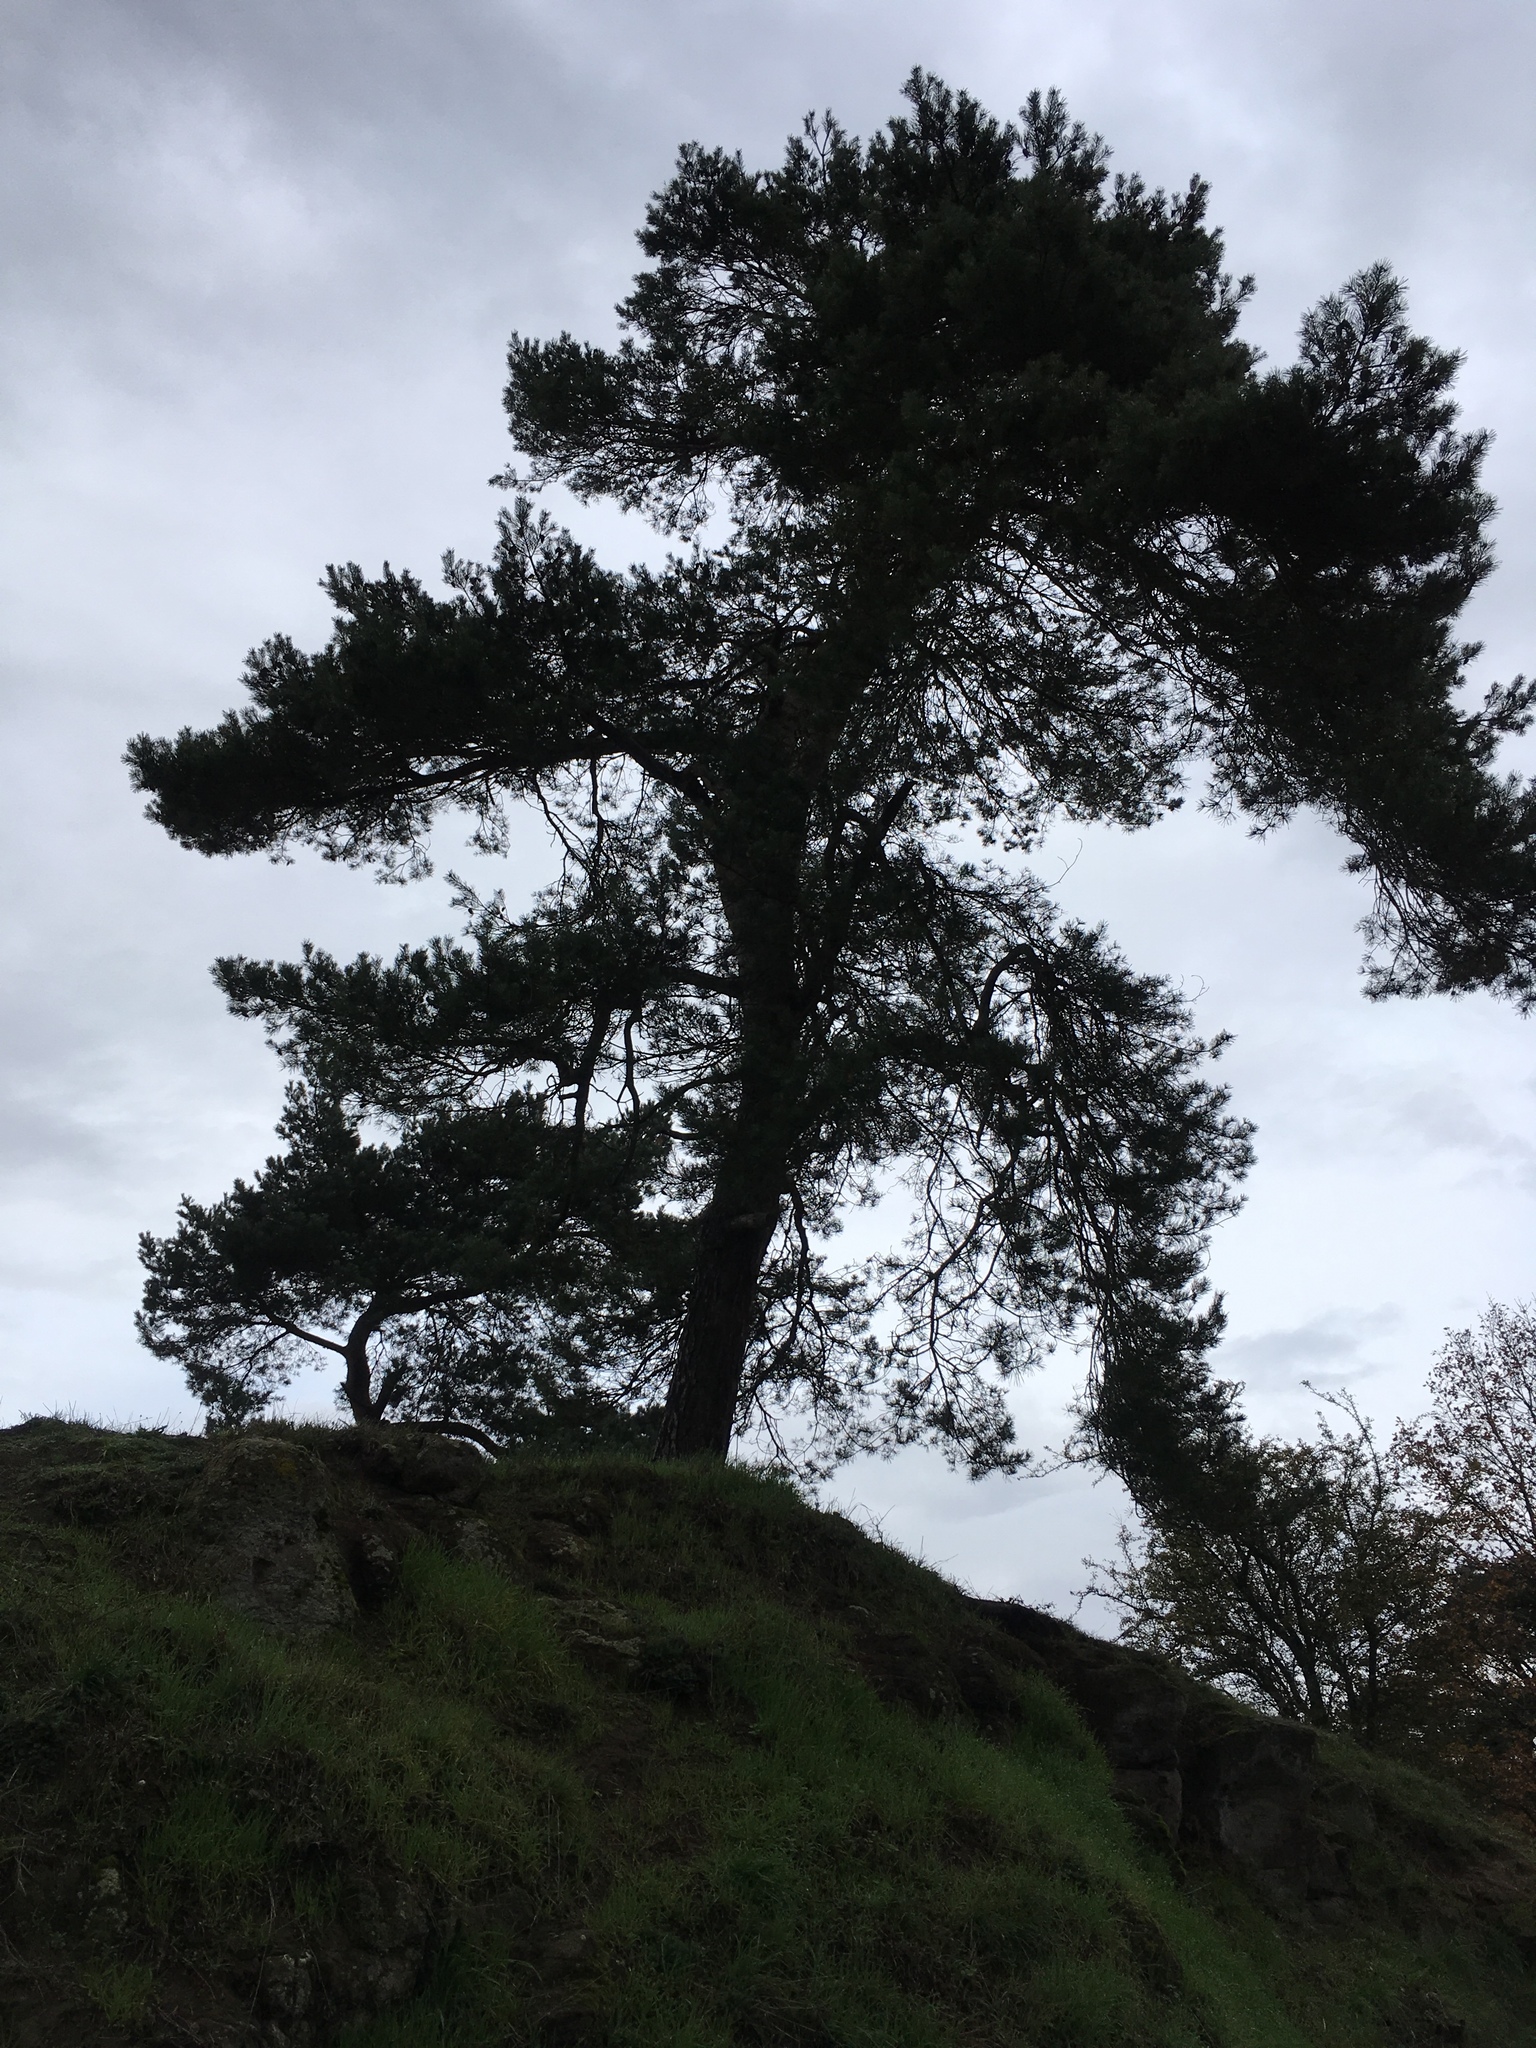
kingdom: Plantae
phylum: Tracheophyta
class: Pinopsida
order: Pinales
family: Pinaceae
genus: Pinus
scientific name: Pinus sylvestris
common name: Scots pine
